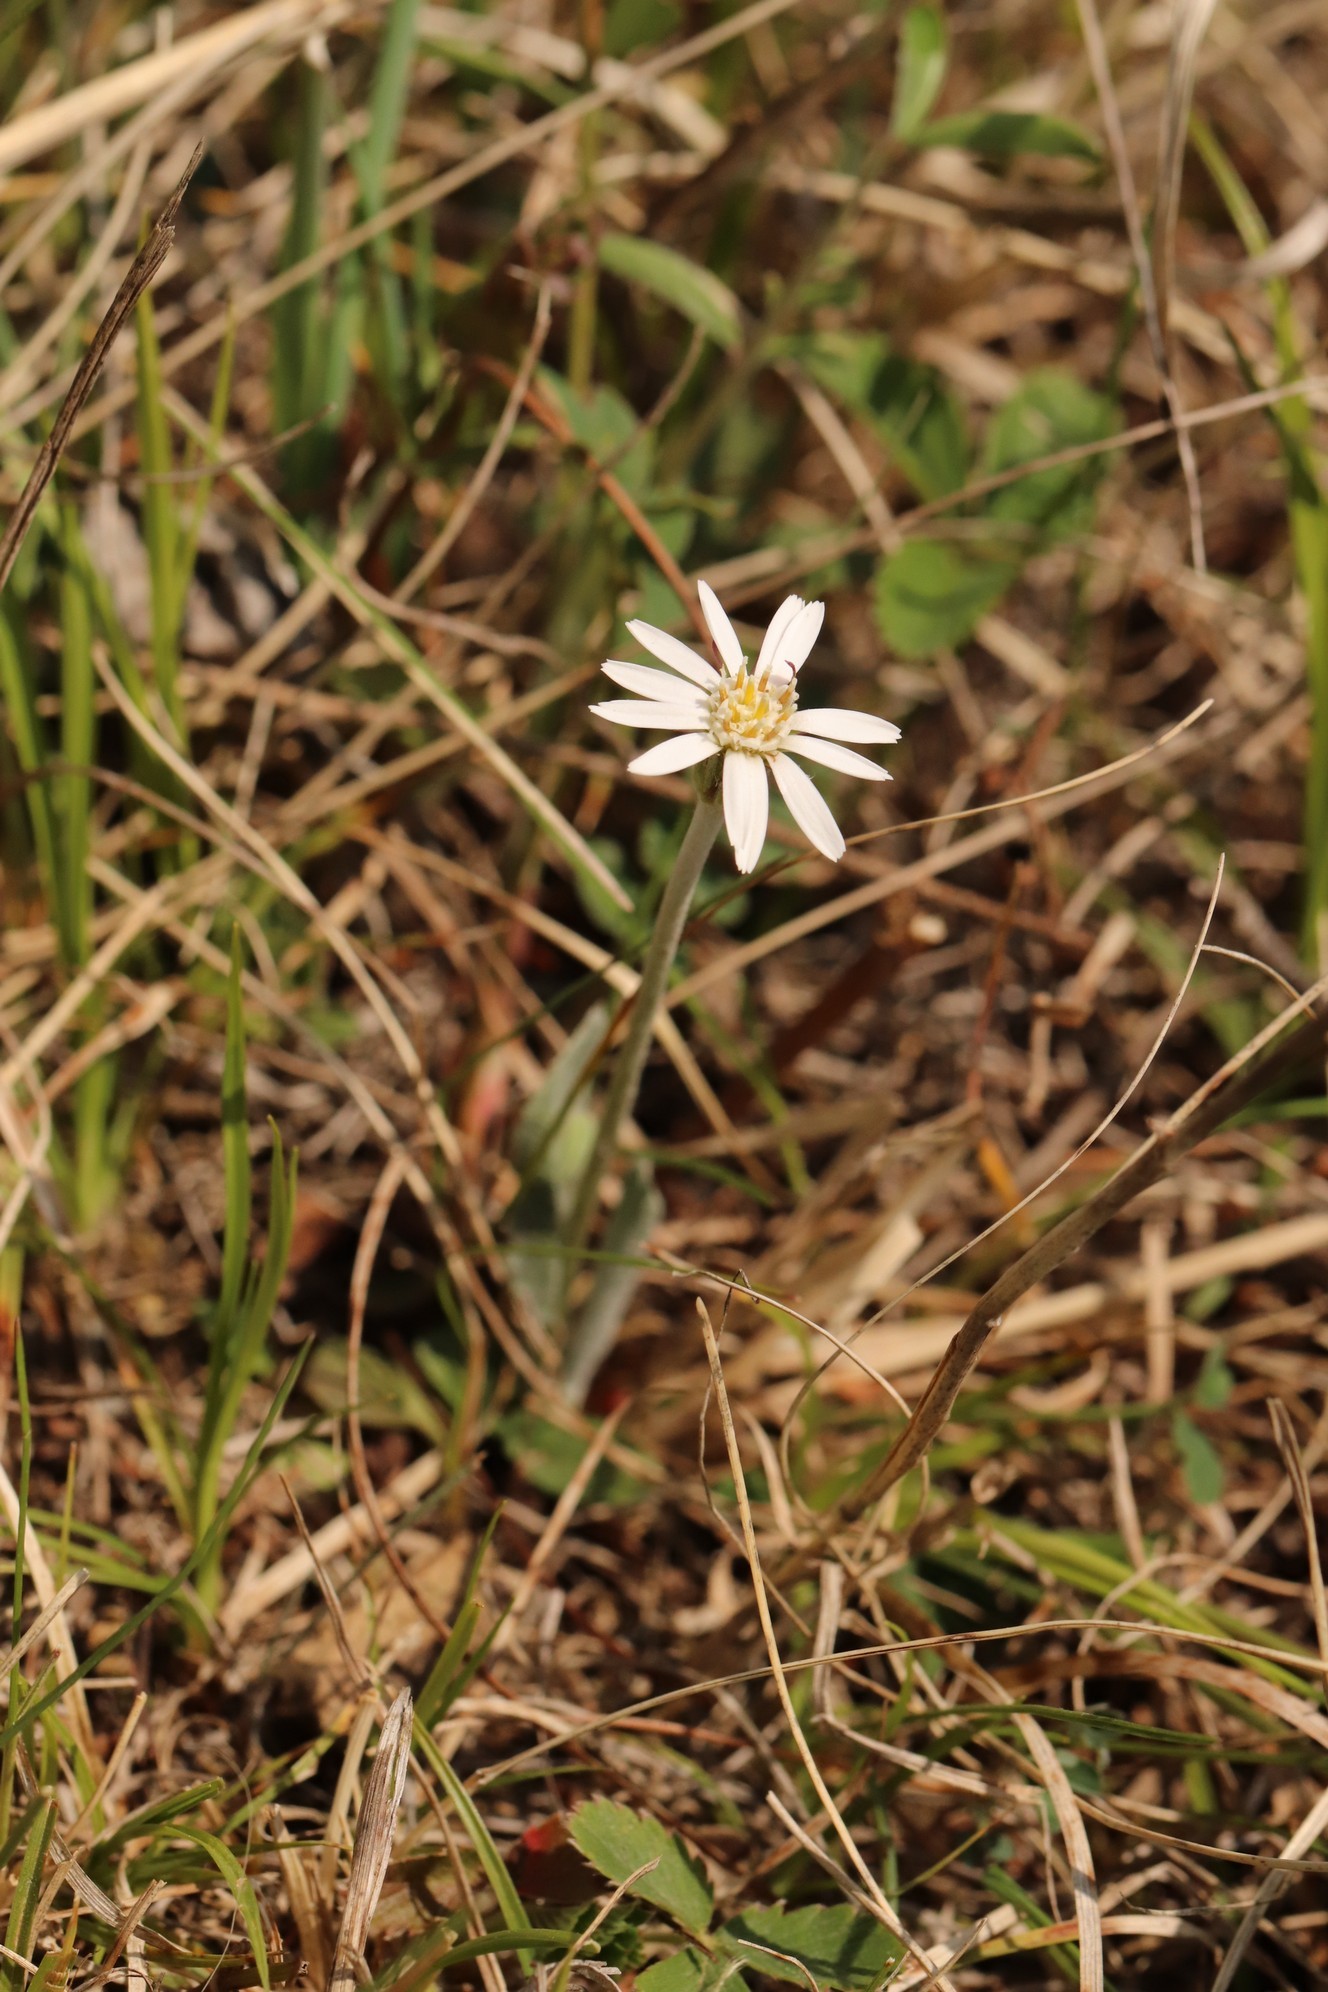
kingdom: Plantae
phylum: Tracheophyta
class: Magnoliopsida
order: Asterales
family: Asteraceae
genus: Leibnitzia
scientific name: Leibnitzia anandria
